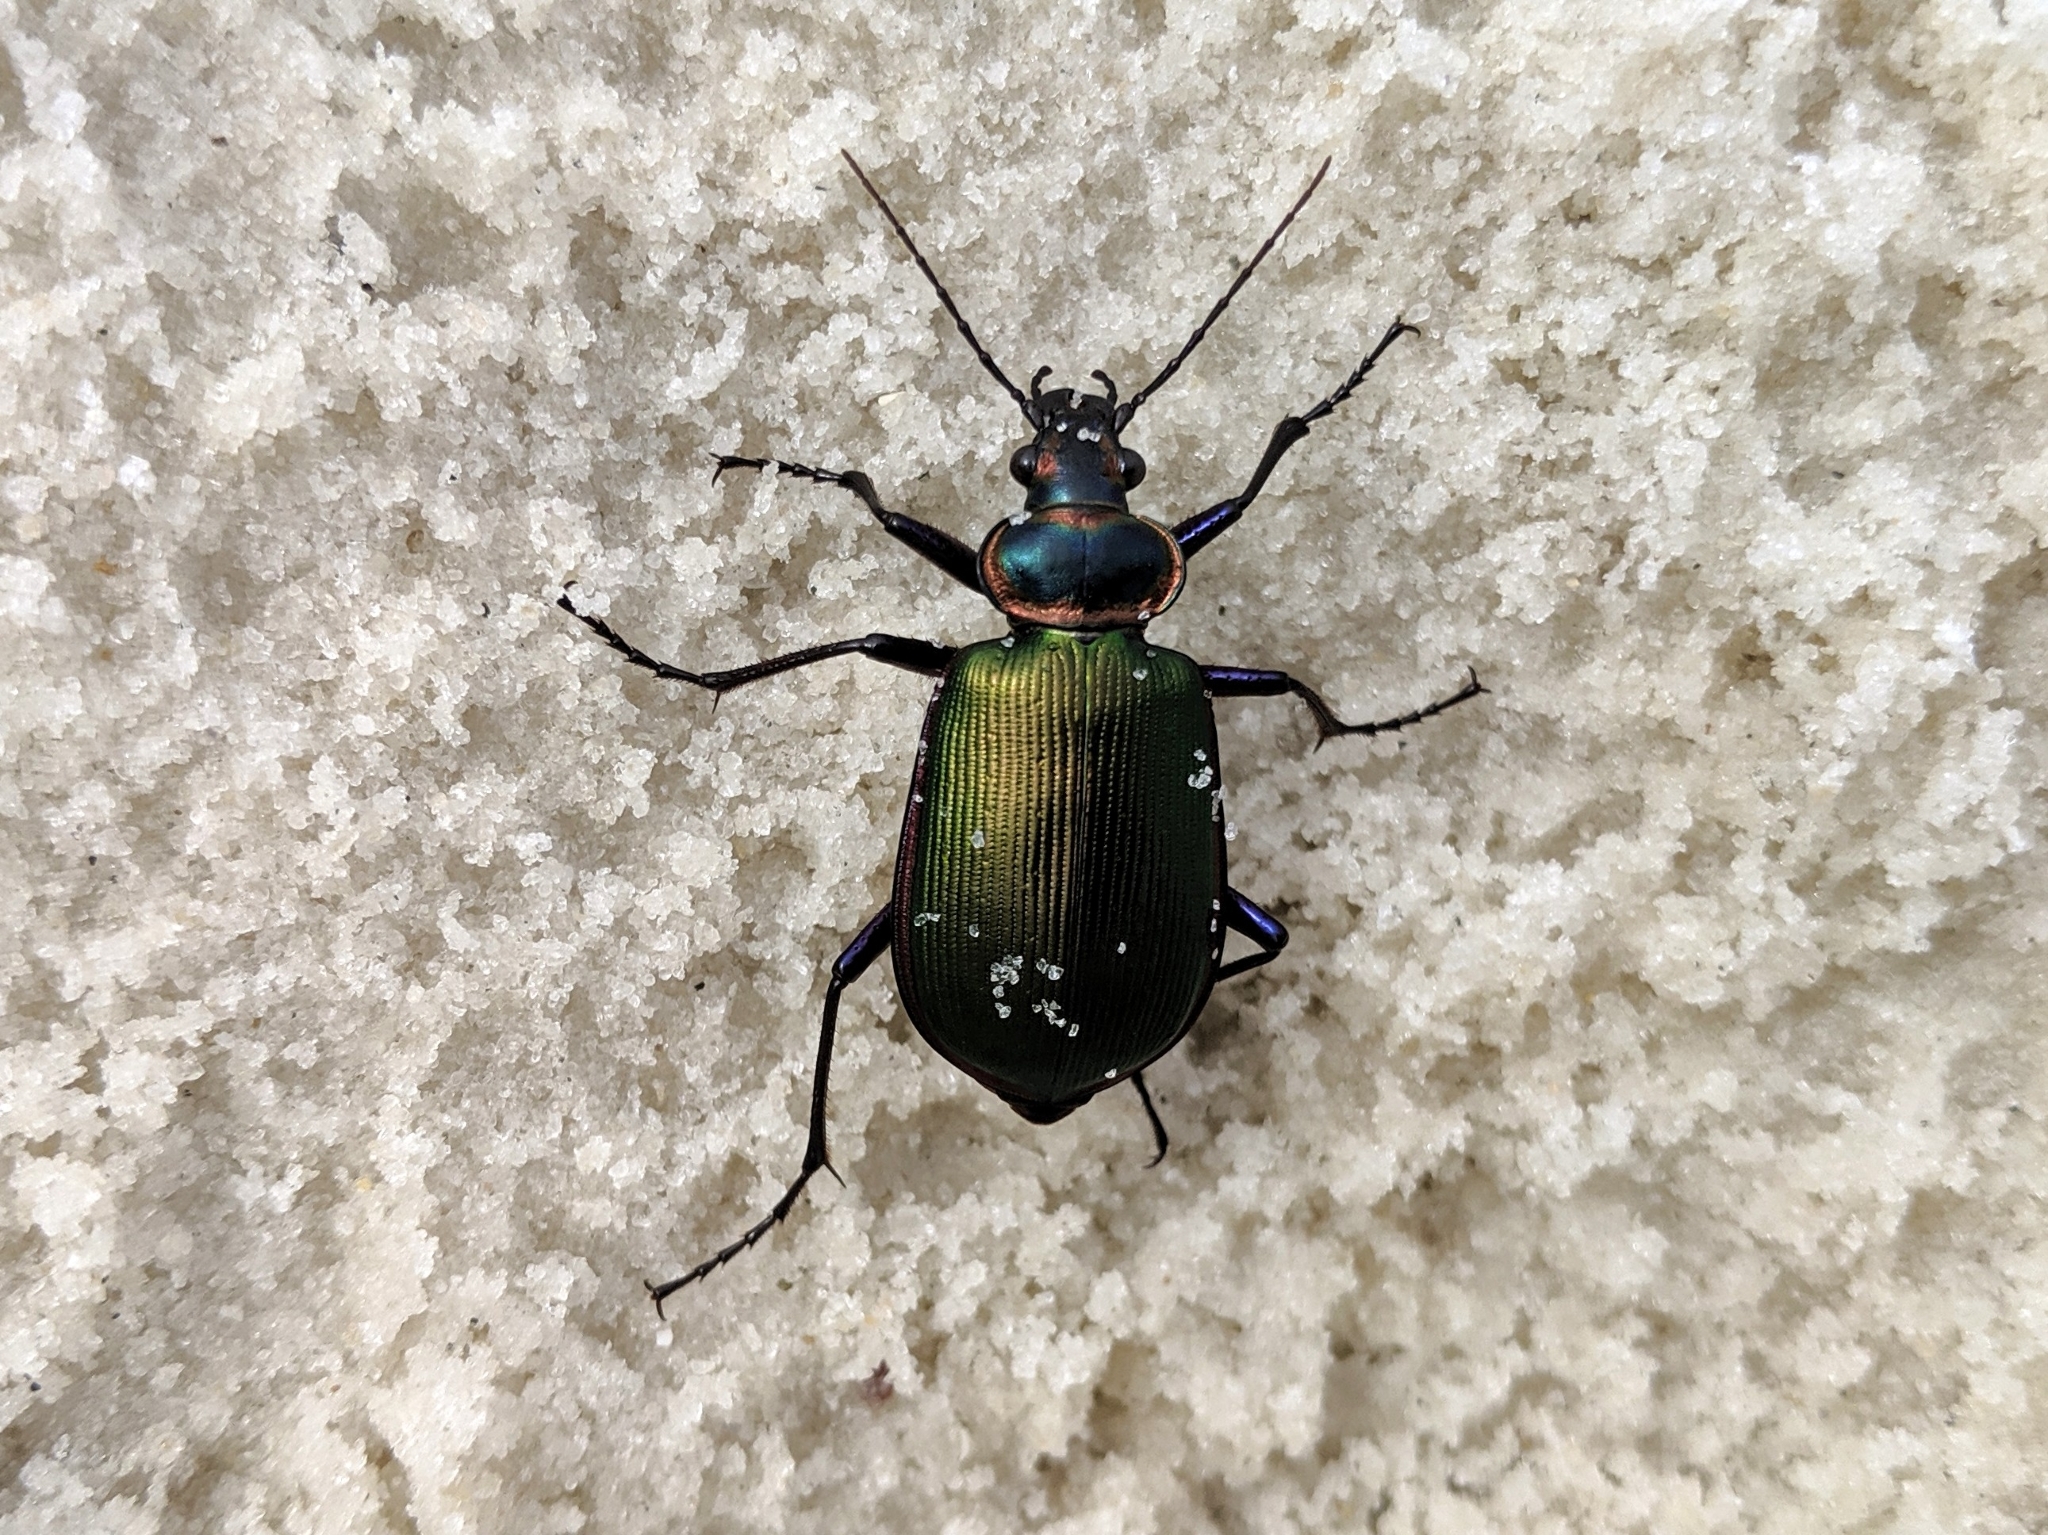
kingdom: Animalia
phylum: Arthropoda
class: Insecta
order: Coleoptera
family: Carabidae
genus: Calosoma
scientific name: Calosoma scrutator
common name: Fiery searcher beetle
